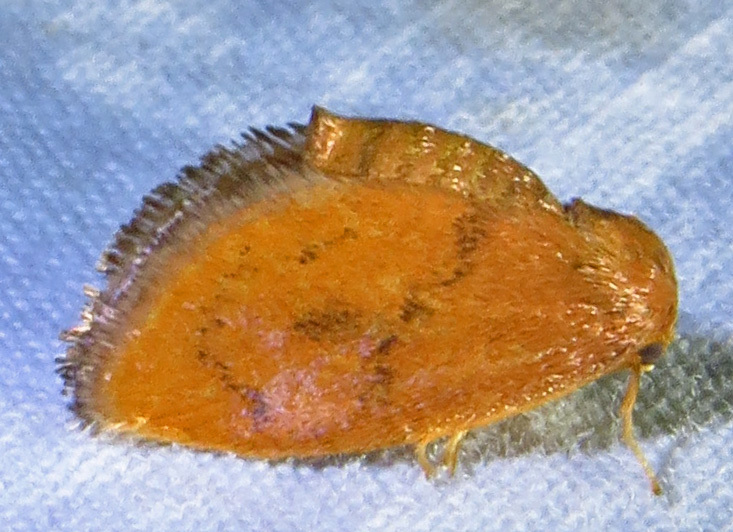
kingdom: Animalia
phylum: Arthropoda
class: Insecta
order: Lepidoptera
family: Limacodidae
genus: Heterogenea
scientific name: Heterogenea shurtleffi
